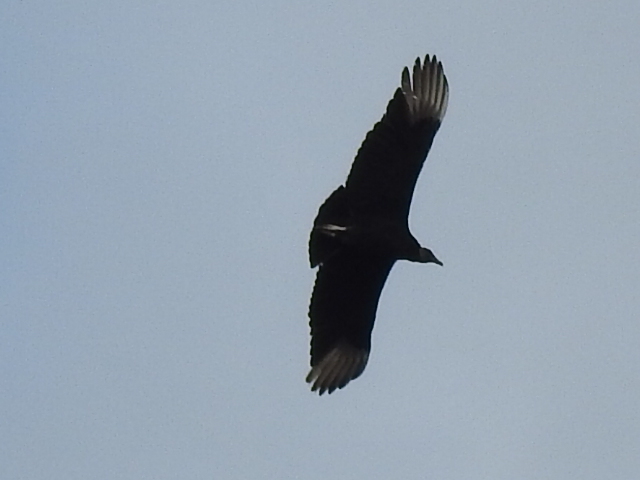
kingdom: Animalia
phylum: Chordata
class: Aves
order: Accipitriformes
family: Cathartidae
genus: Coragyps
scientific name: Coragyps atratus
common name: Black vulture
